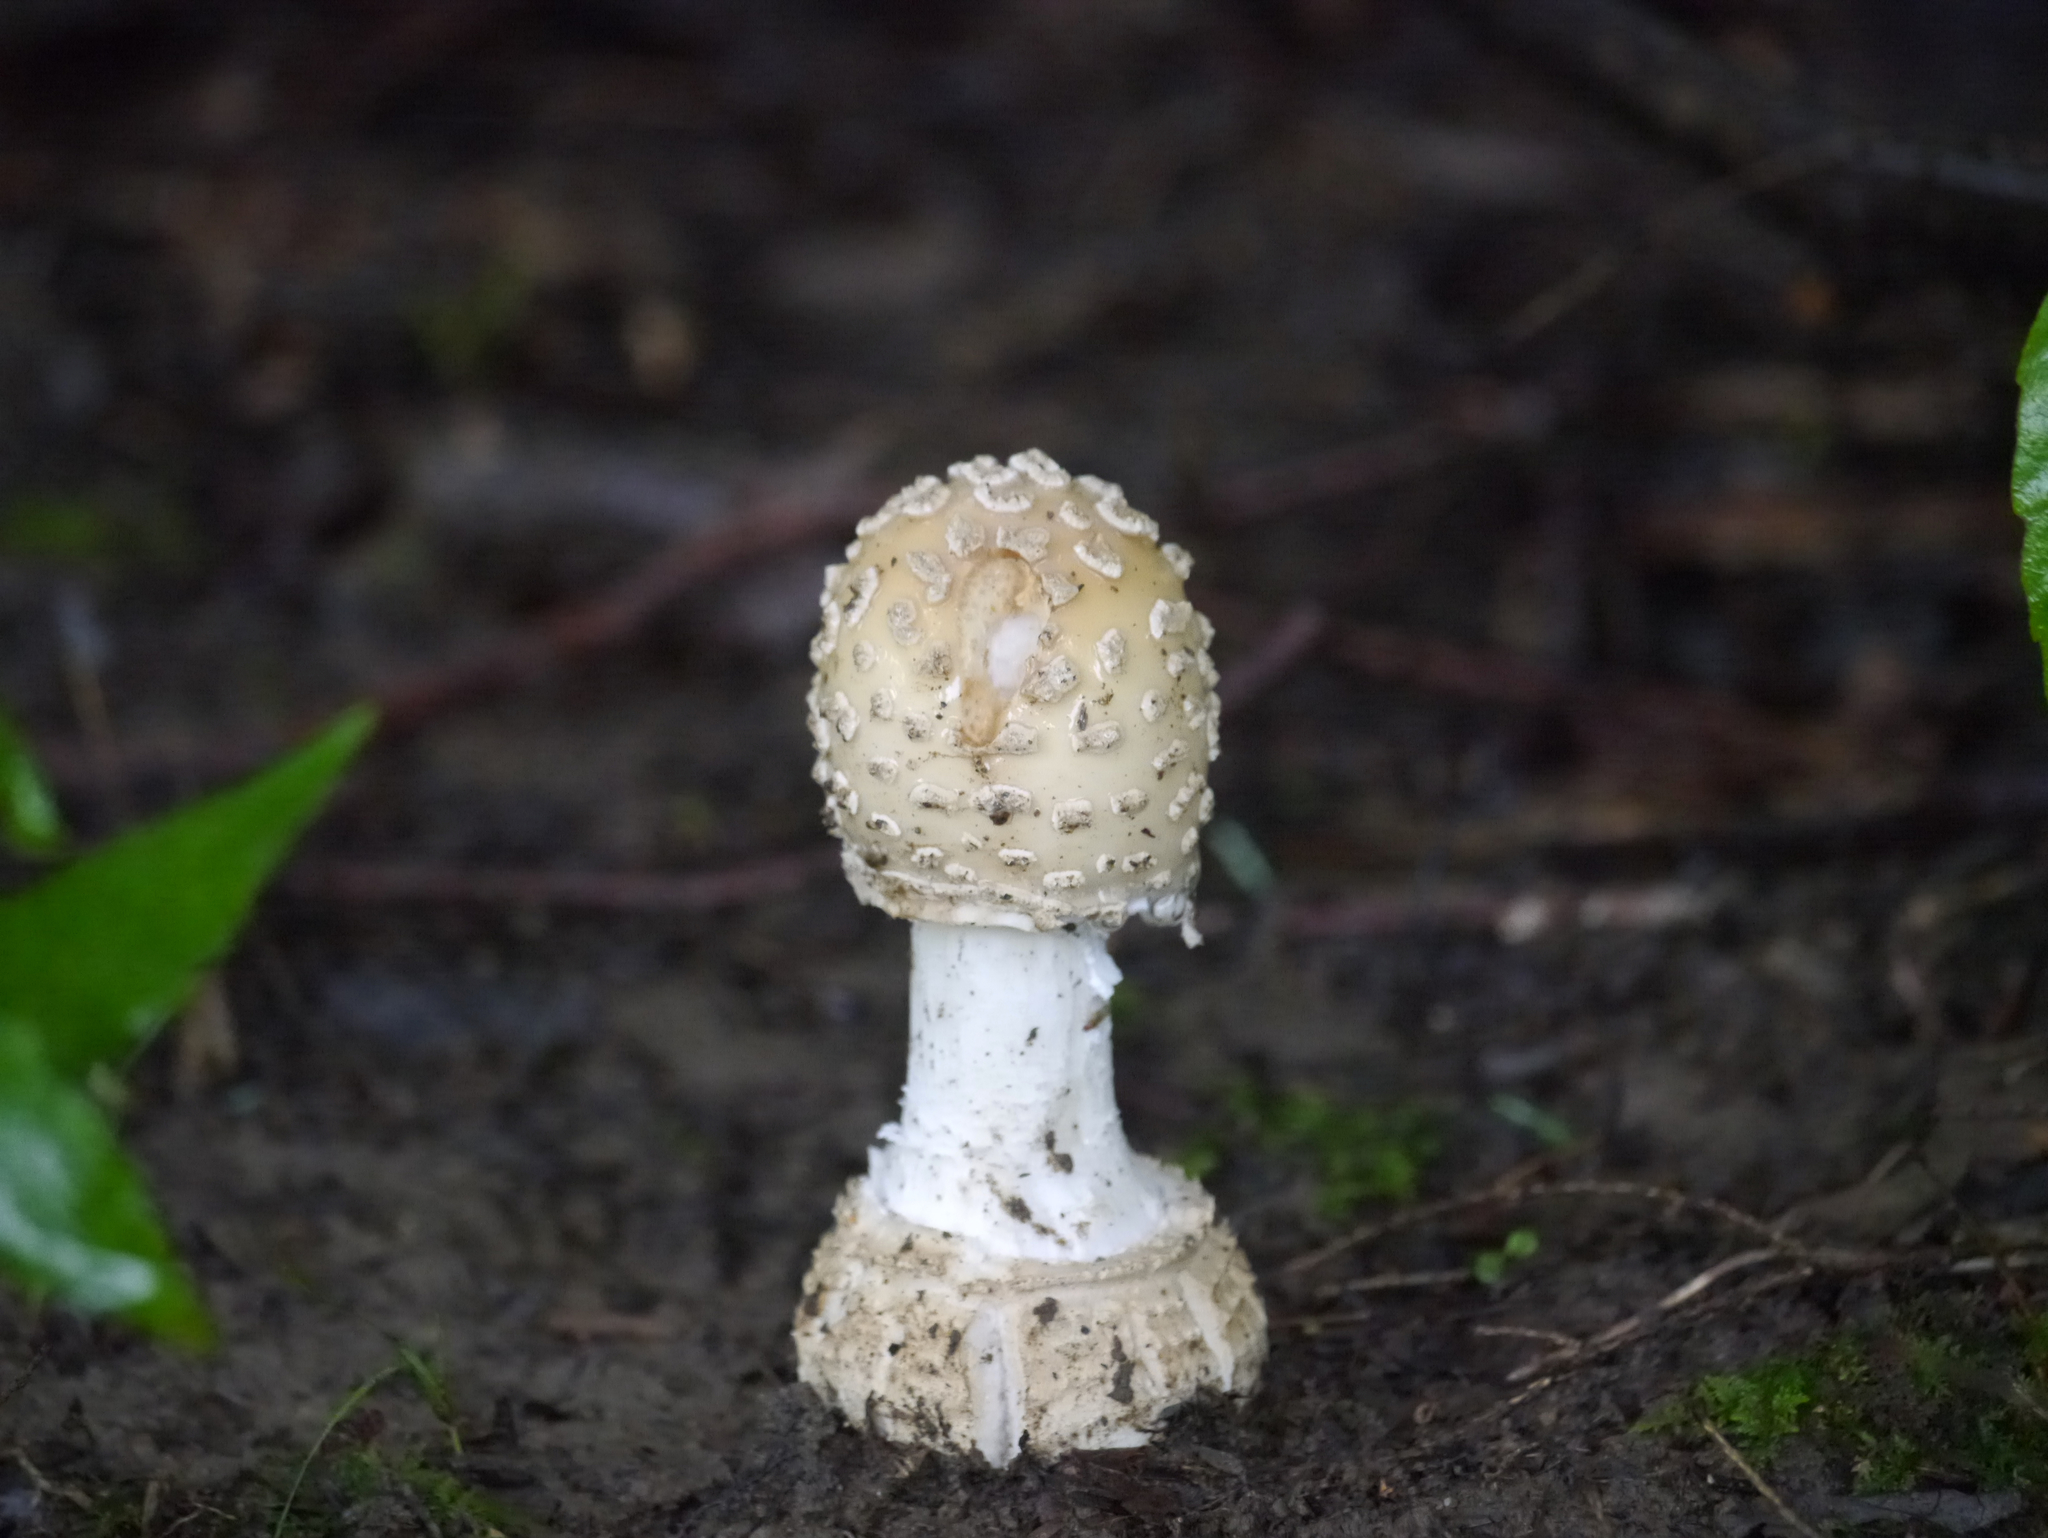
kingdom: Fungi
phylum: Basidiomycota
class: Agaricomycetes
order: Agaricales
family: Amanitaceae
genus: Amanita
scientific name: Amanita velatipes
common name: Great funnel-veil amanita
